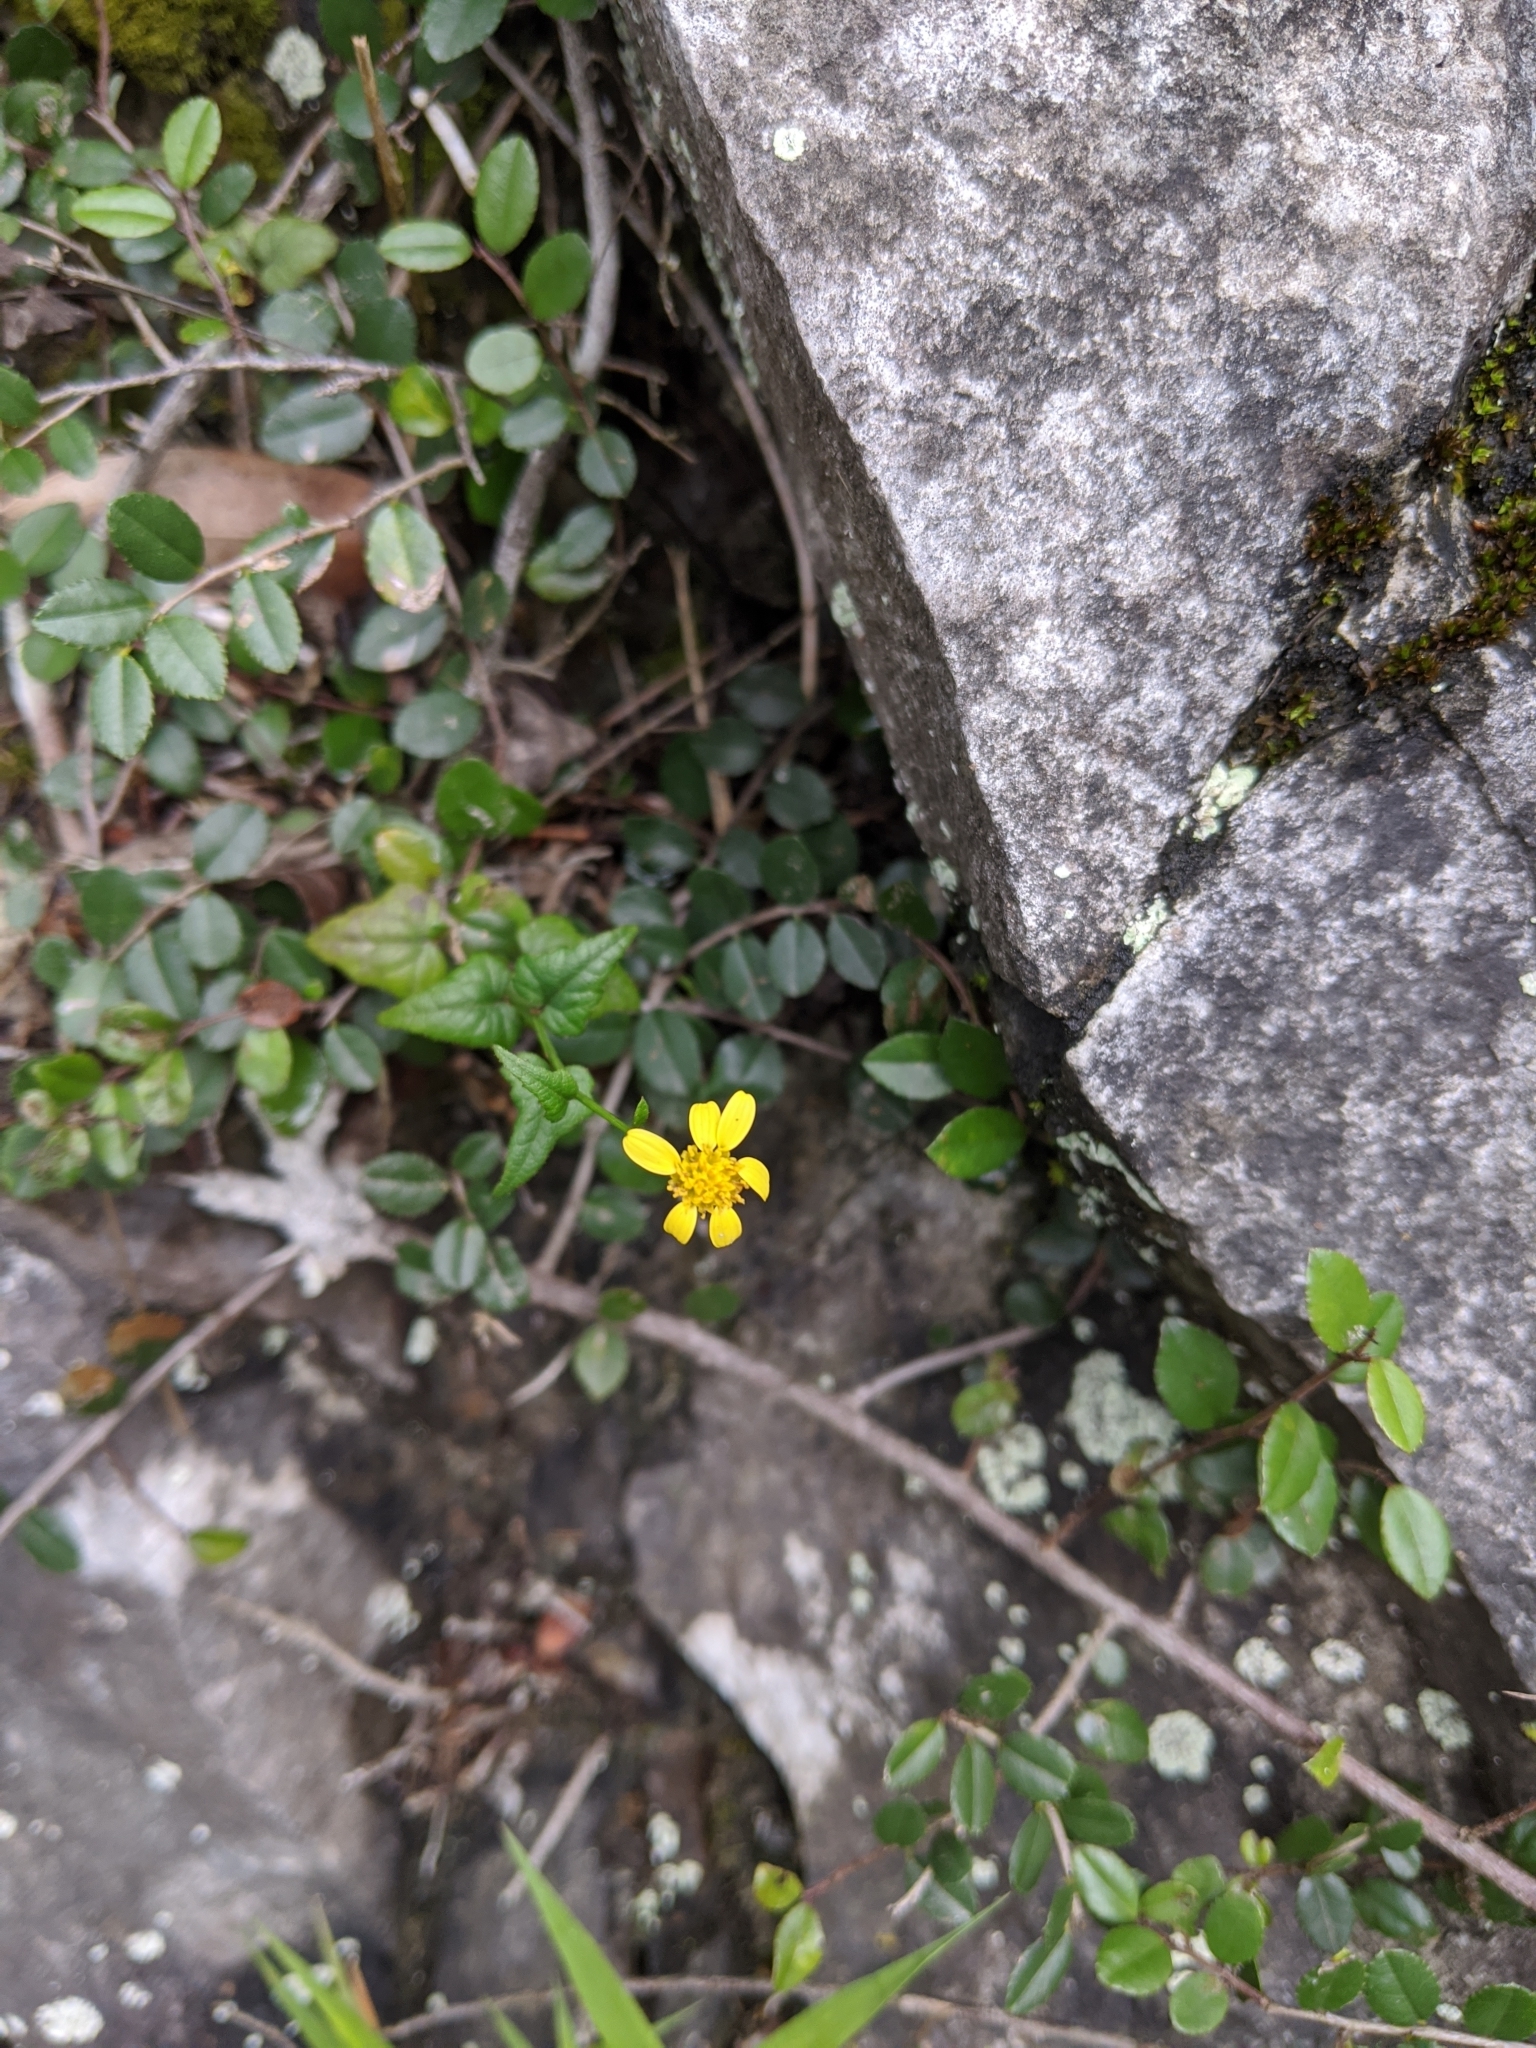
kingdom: Plantae
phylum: Tracheophyta
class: Magnoliopsida
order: Asterales
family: Asteraceae
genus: Senecio
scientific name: Senecio scandens
